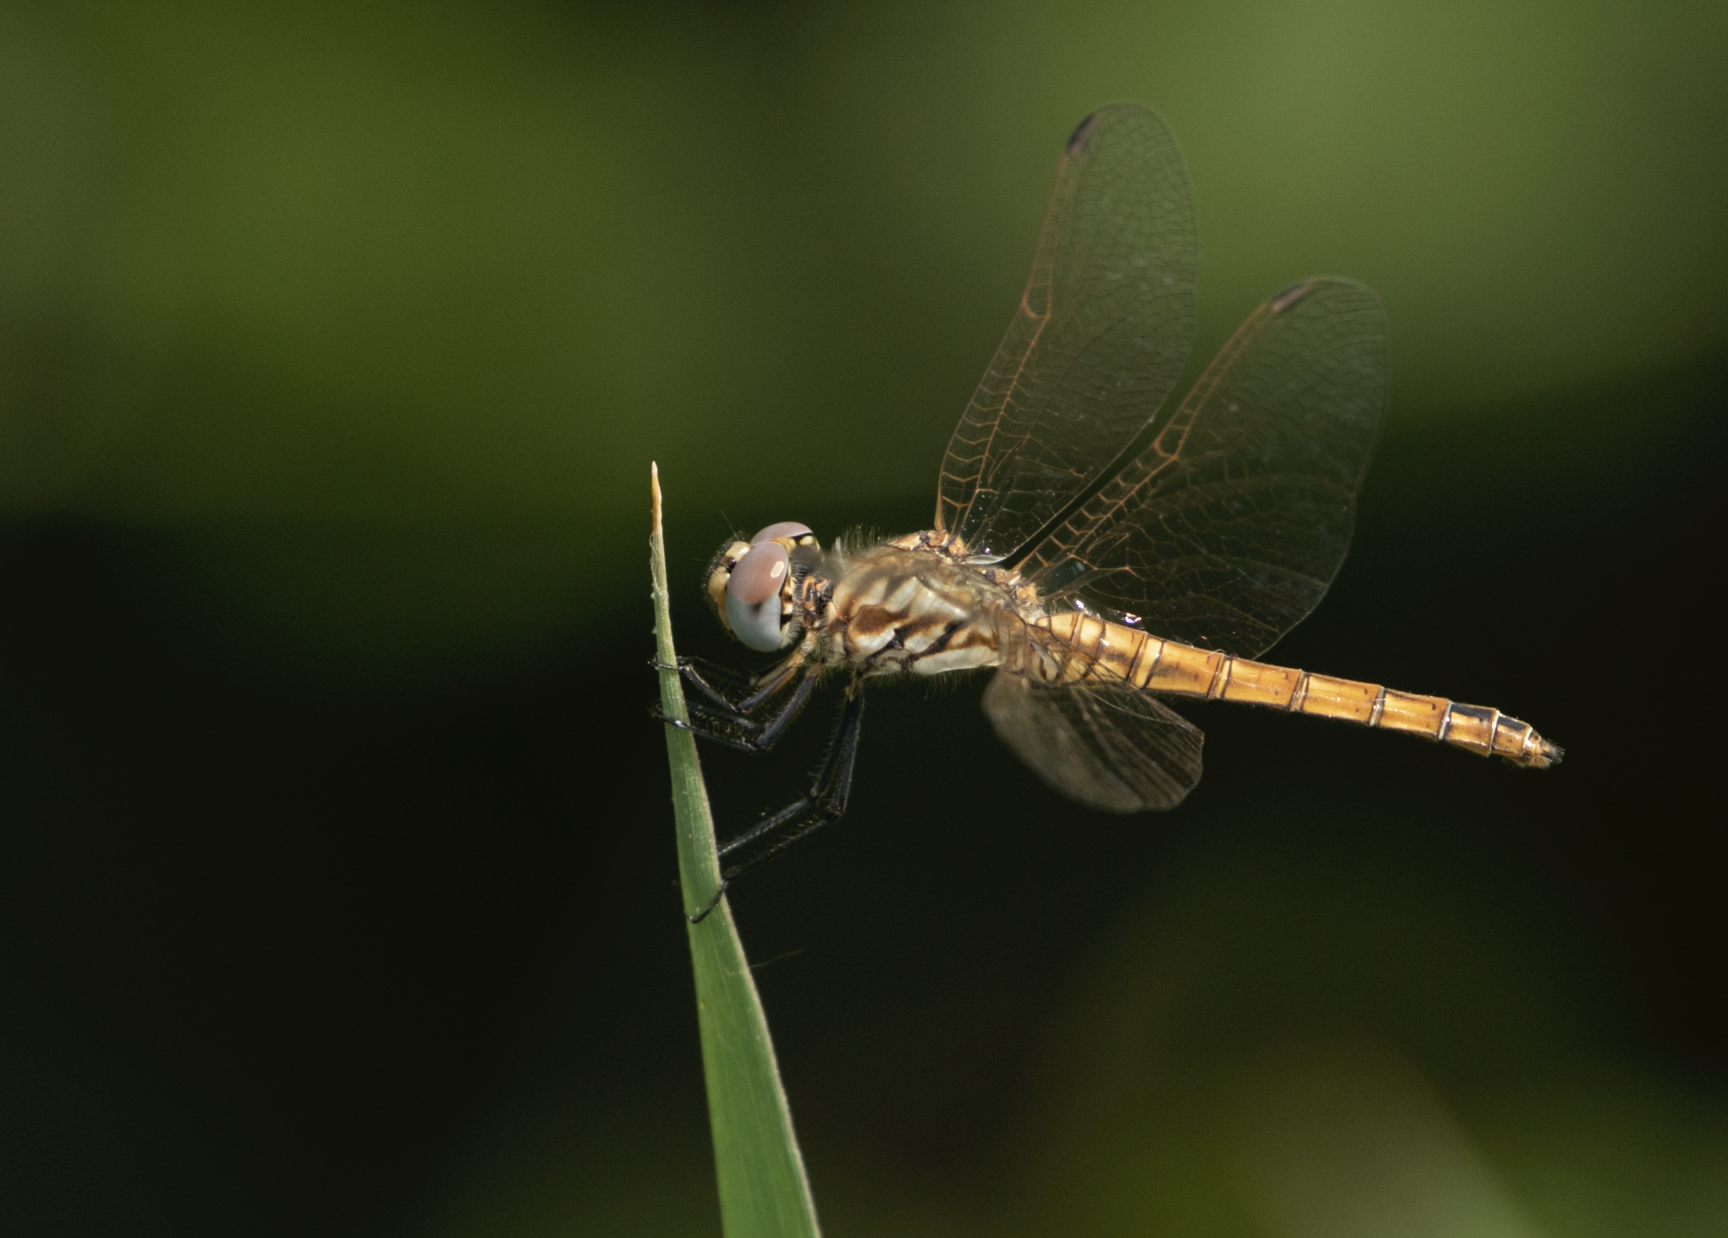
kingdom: Animalia
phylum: Arthropoda
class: Insecta
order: Odonata
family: Libellulidae
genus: Trithemis
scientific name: Trithemis annulata
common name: Violet dropwing
